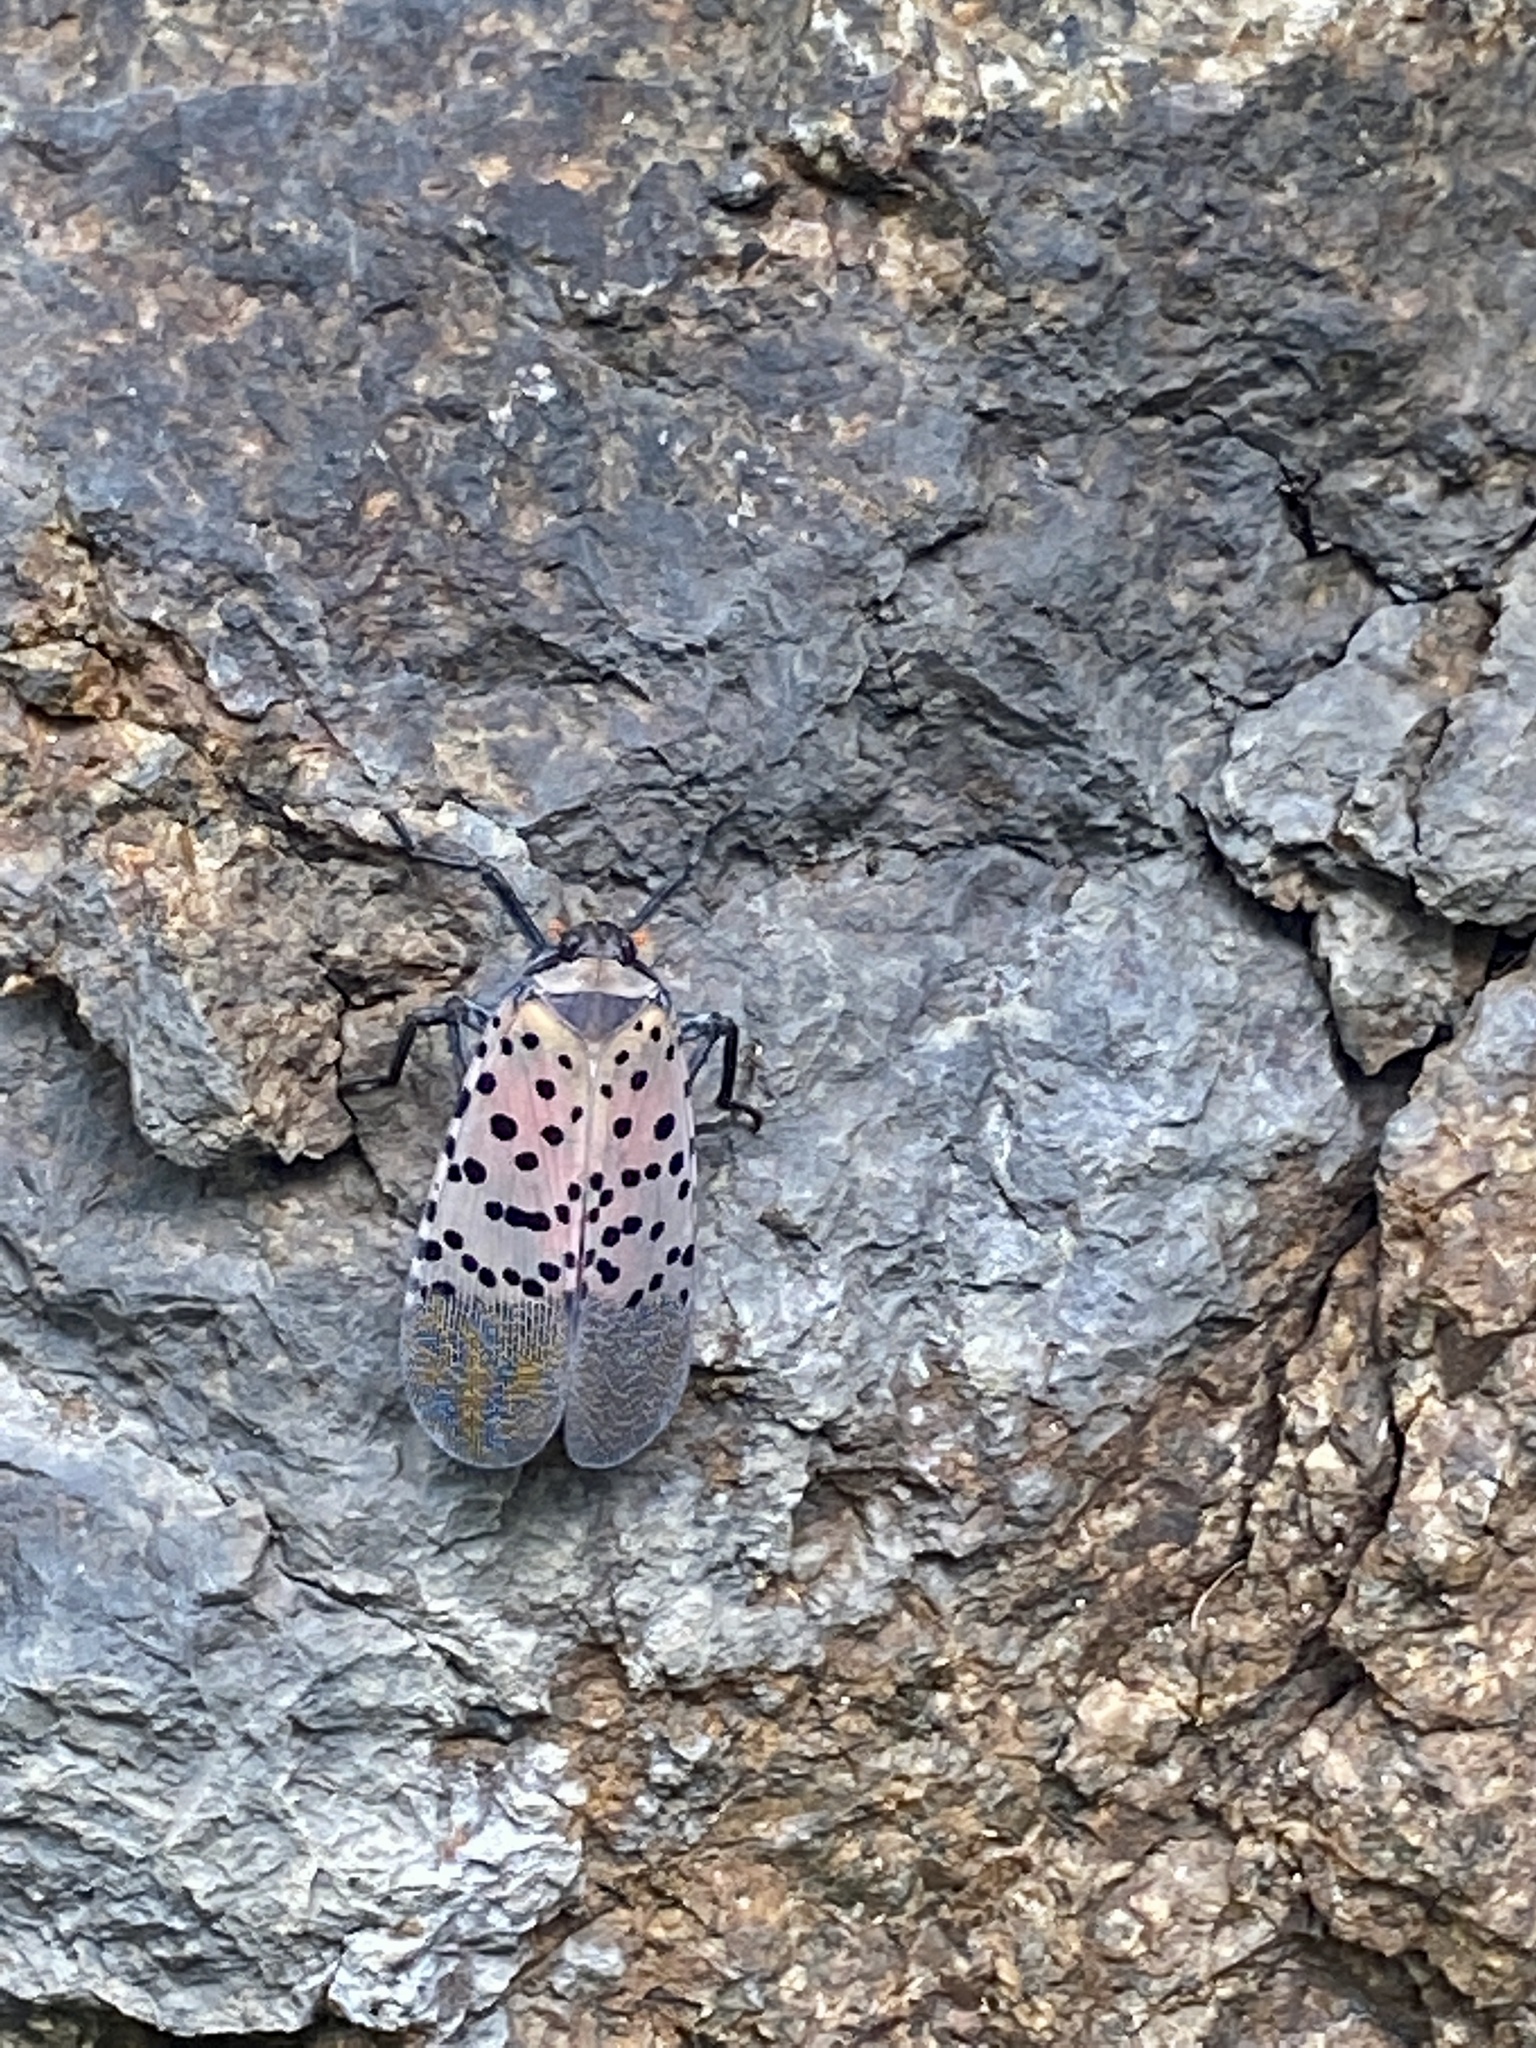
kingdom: Animalia
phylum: Arthropoda
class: Insecta
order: Hemiptera
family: Fulgoridae
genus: Lycorma
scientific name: Lycorma delicatula
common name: Spotted lanternfly
